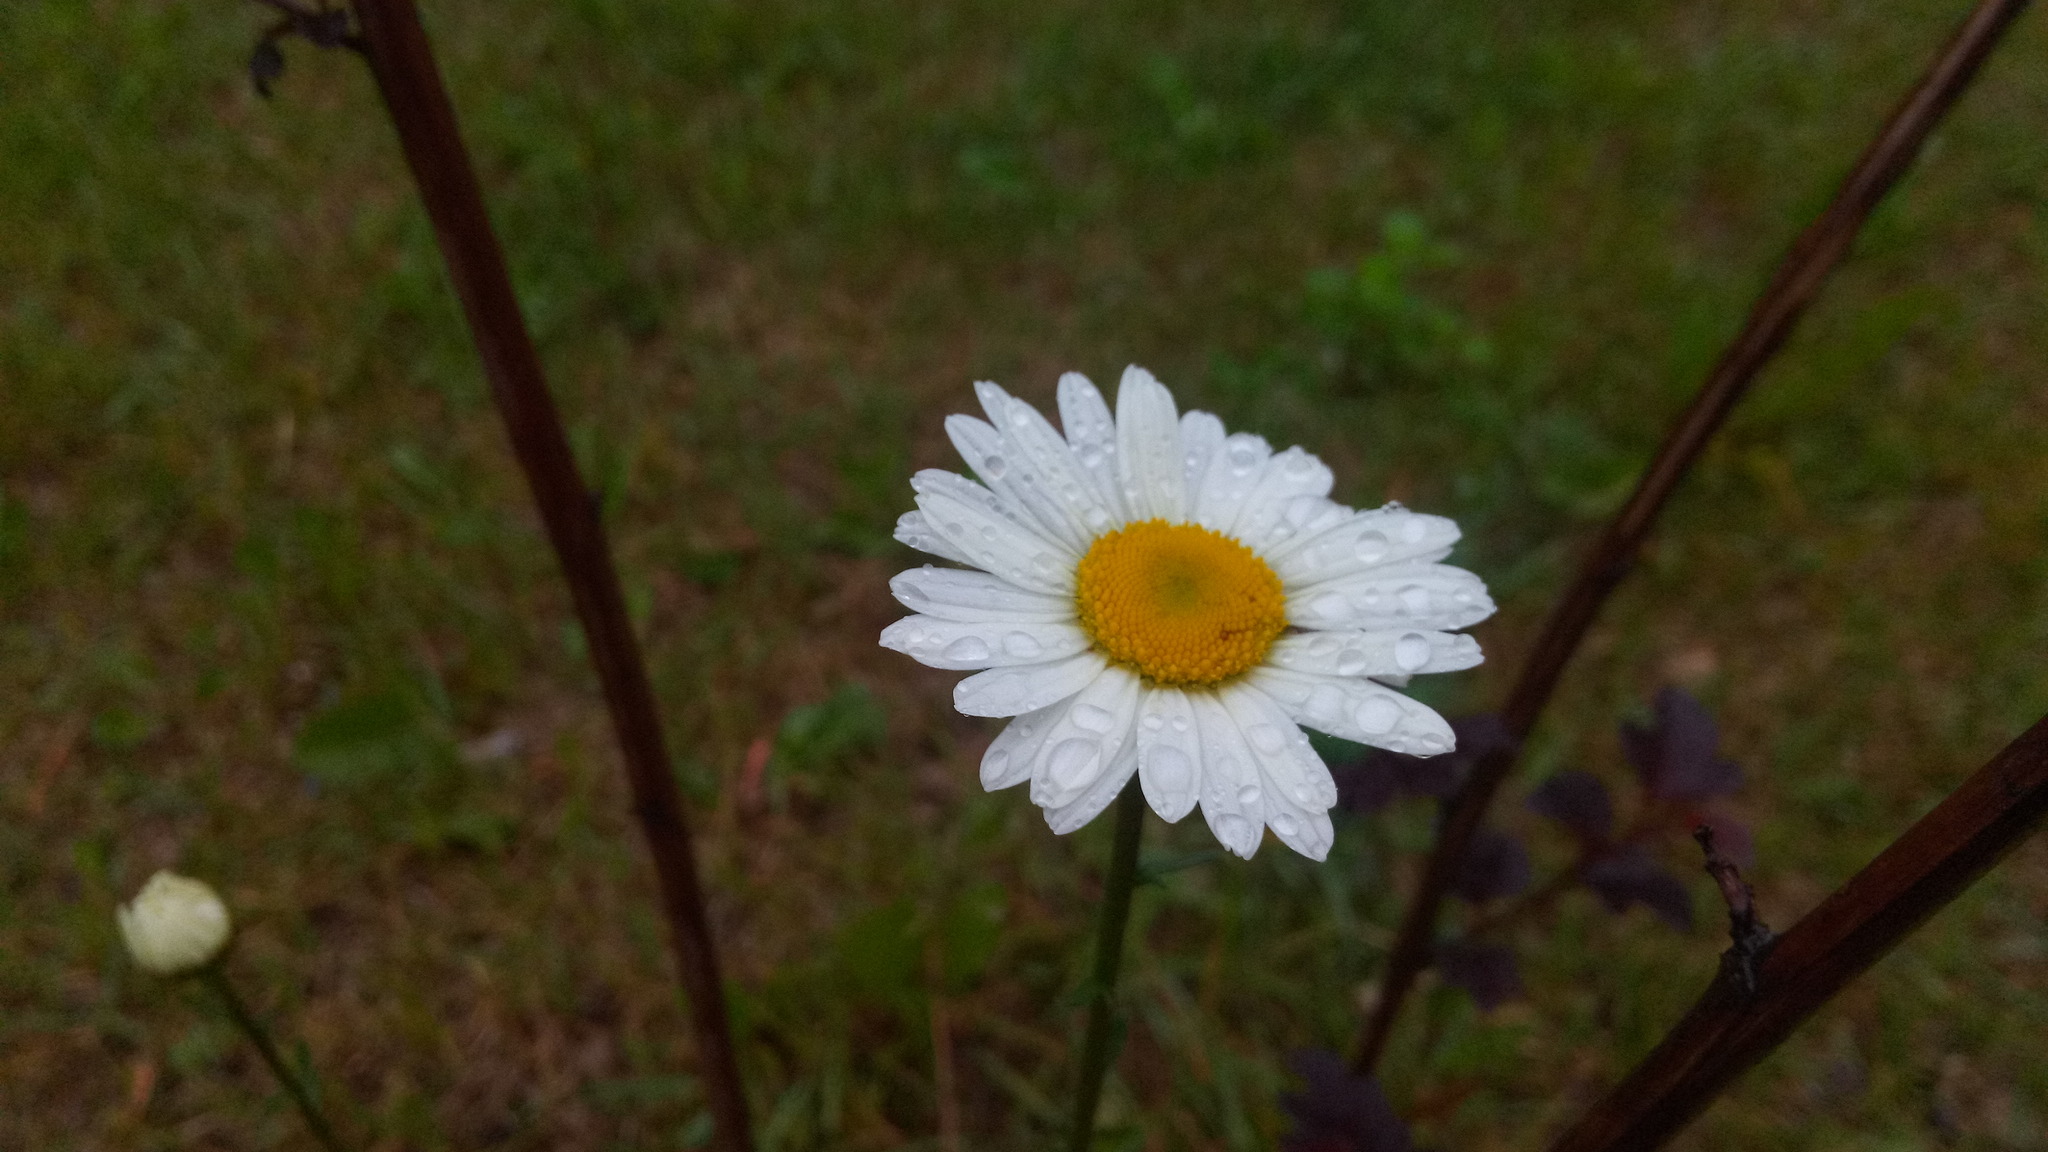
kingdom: Plantae
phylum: Tracheophyta
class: Magnoliopsida
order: Asterales
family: Asteraceae
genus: Leucanthemum
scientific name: Leucanthemum vulgare
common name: Oxeye daisy
